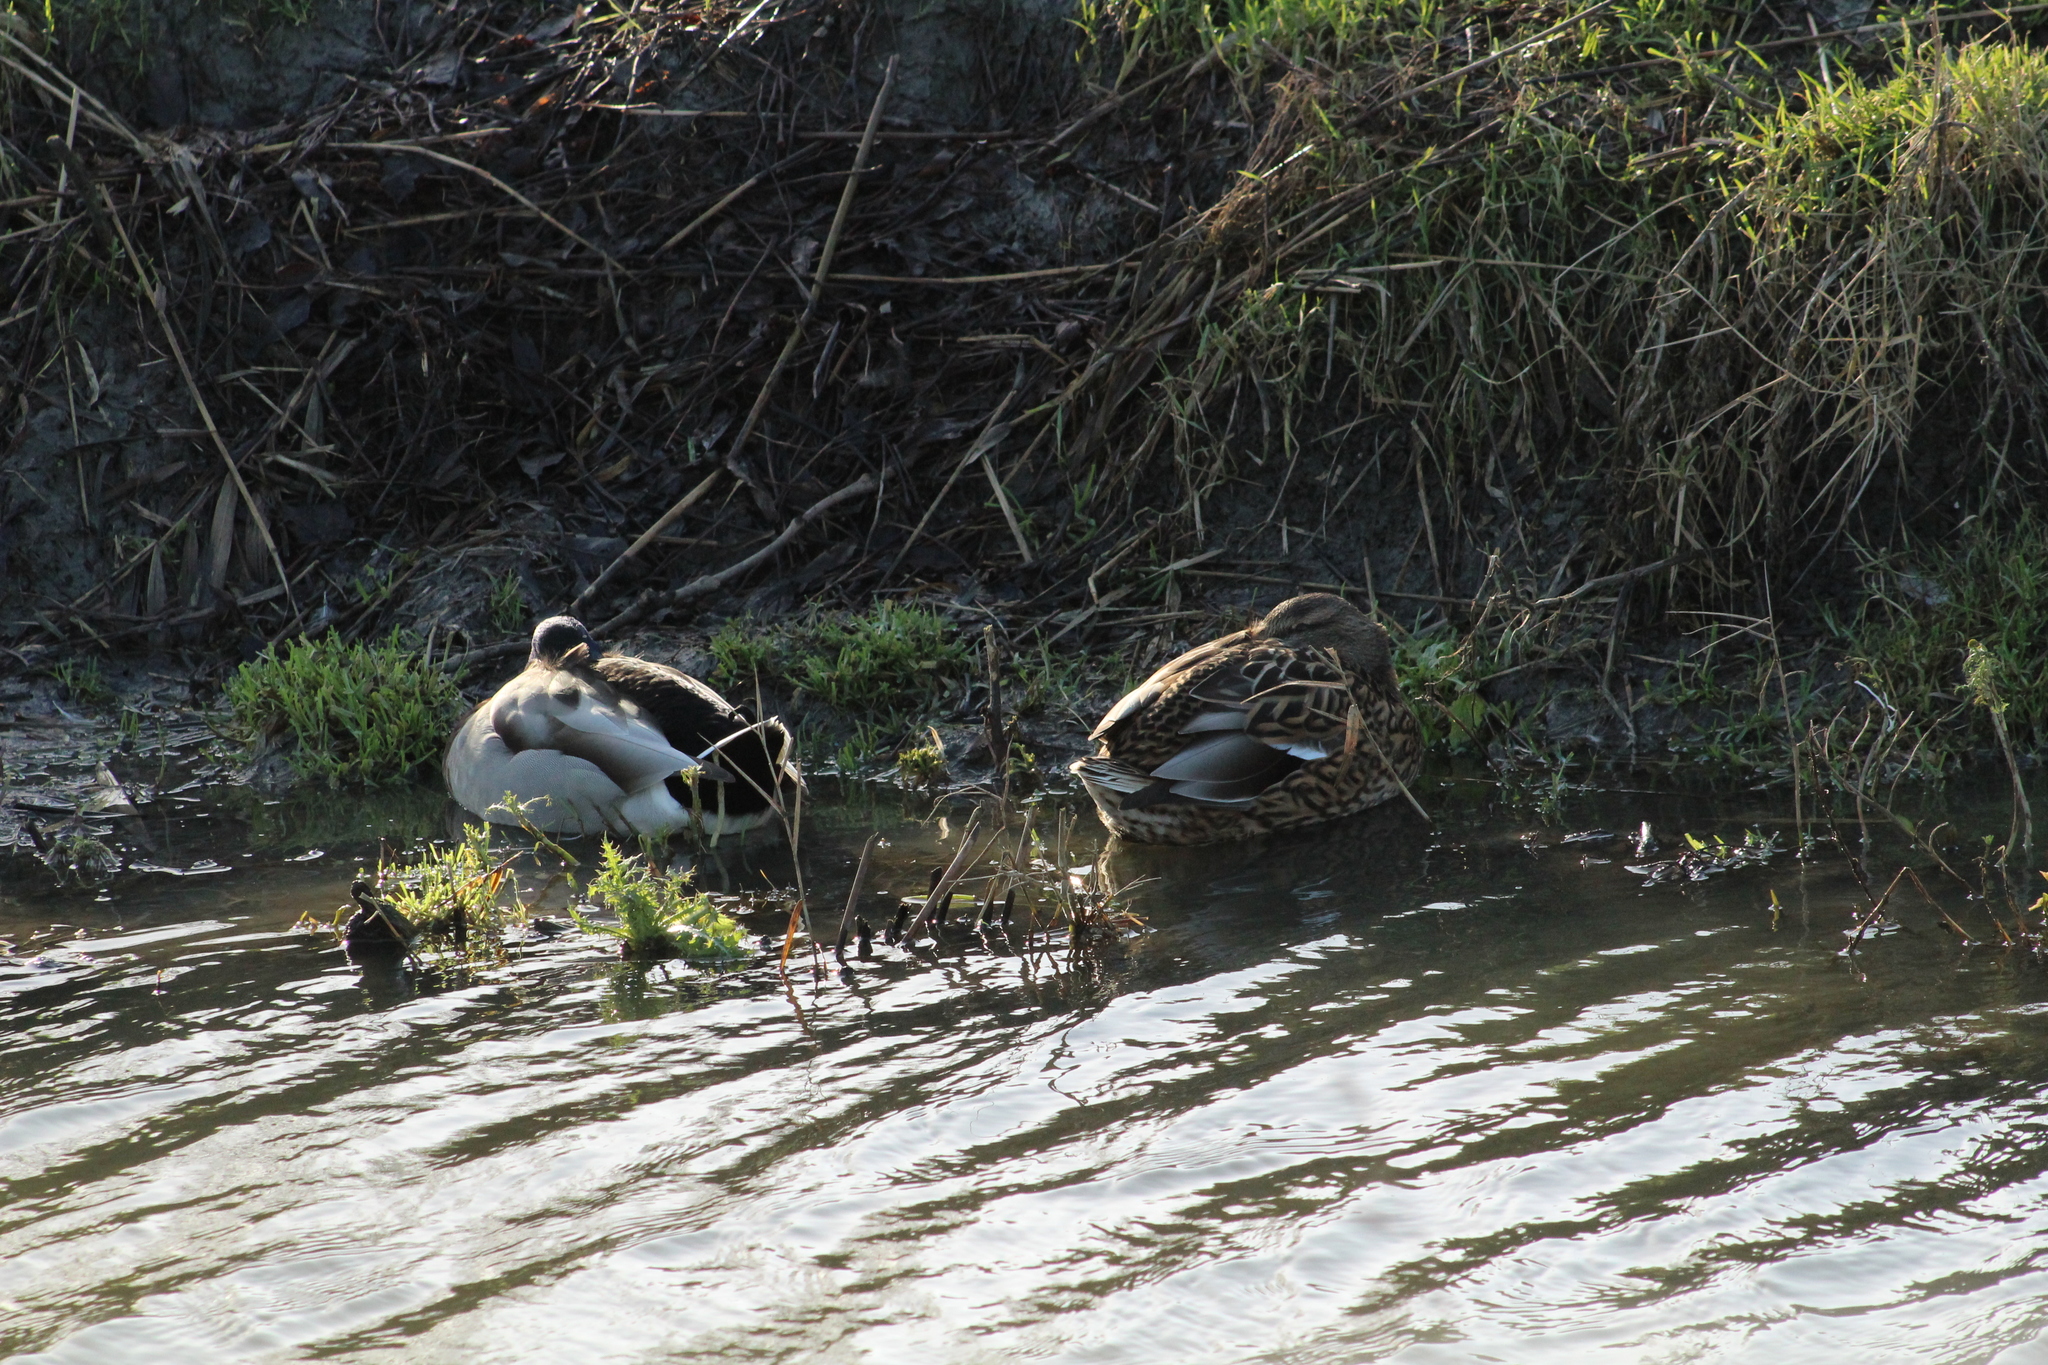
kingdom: Animalia
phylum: Chordata
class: Aves
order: Anseriformes
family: Anatidae
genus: Anas
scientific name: Anas platyrhynchos
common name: Mallard
